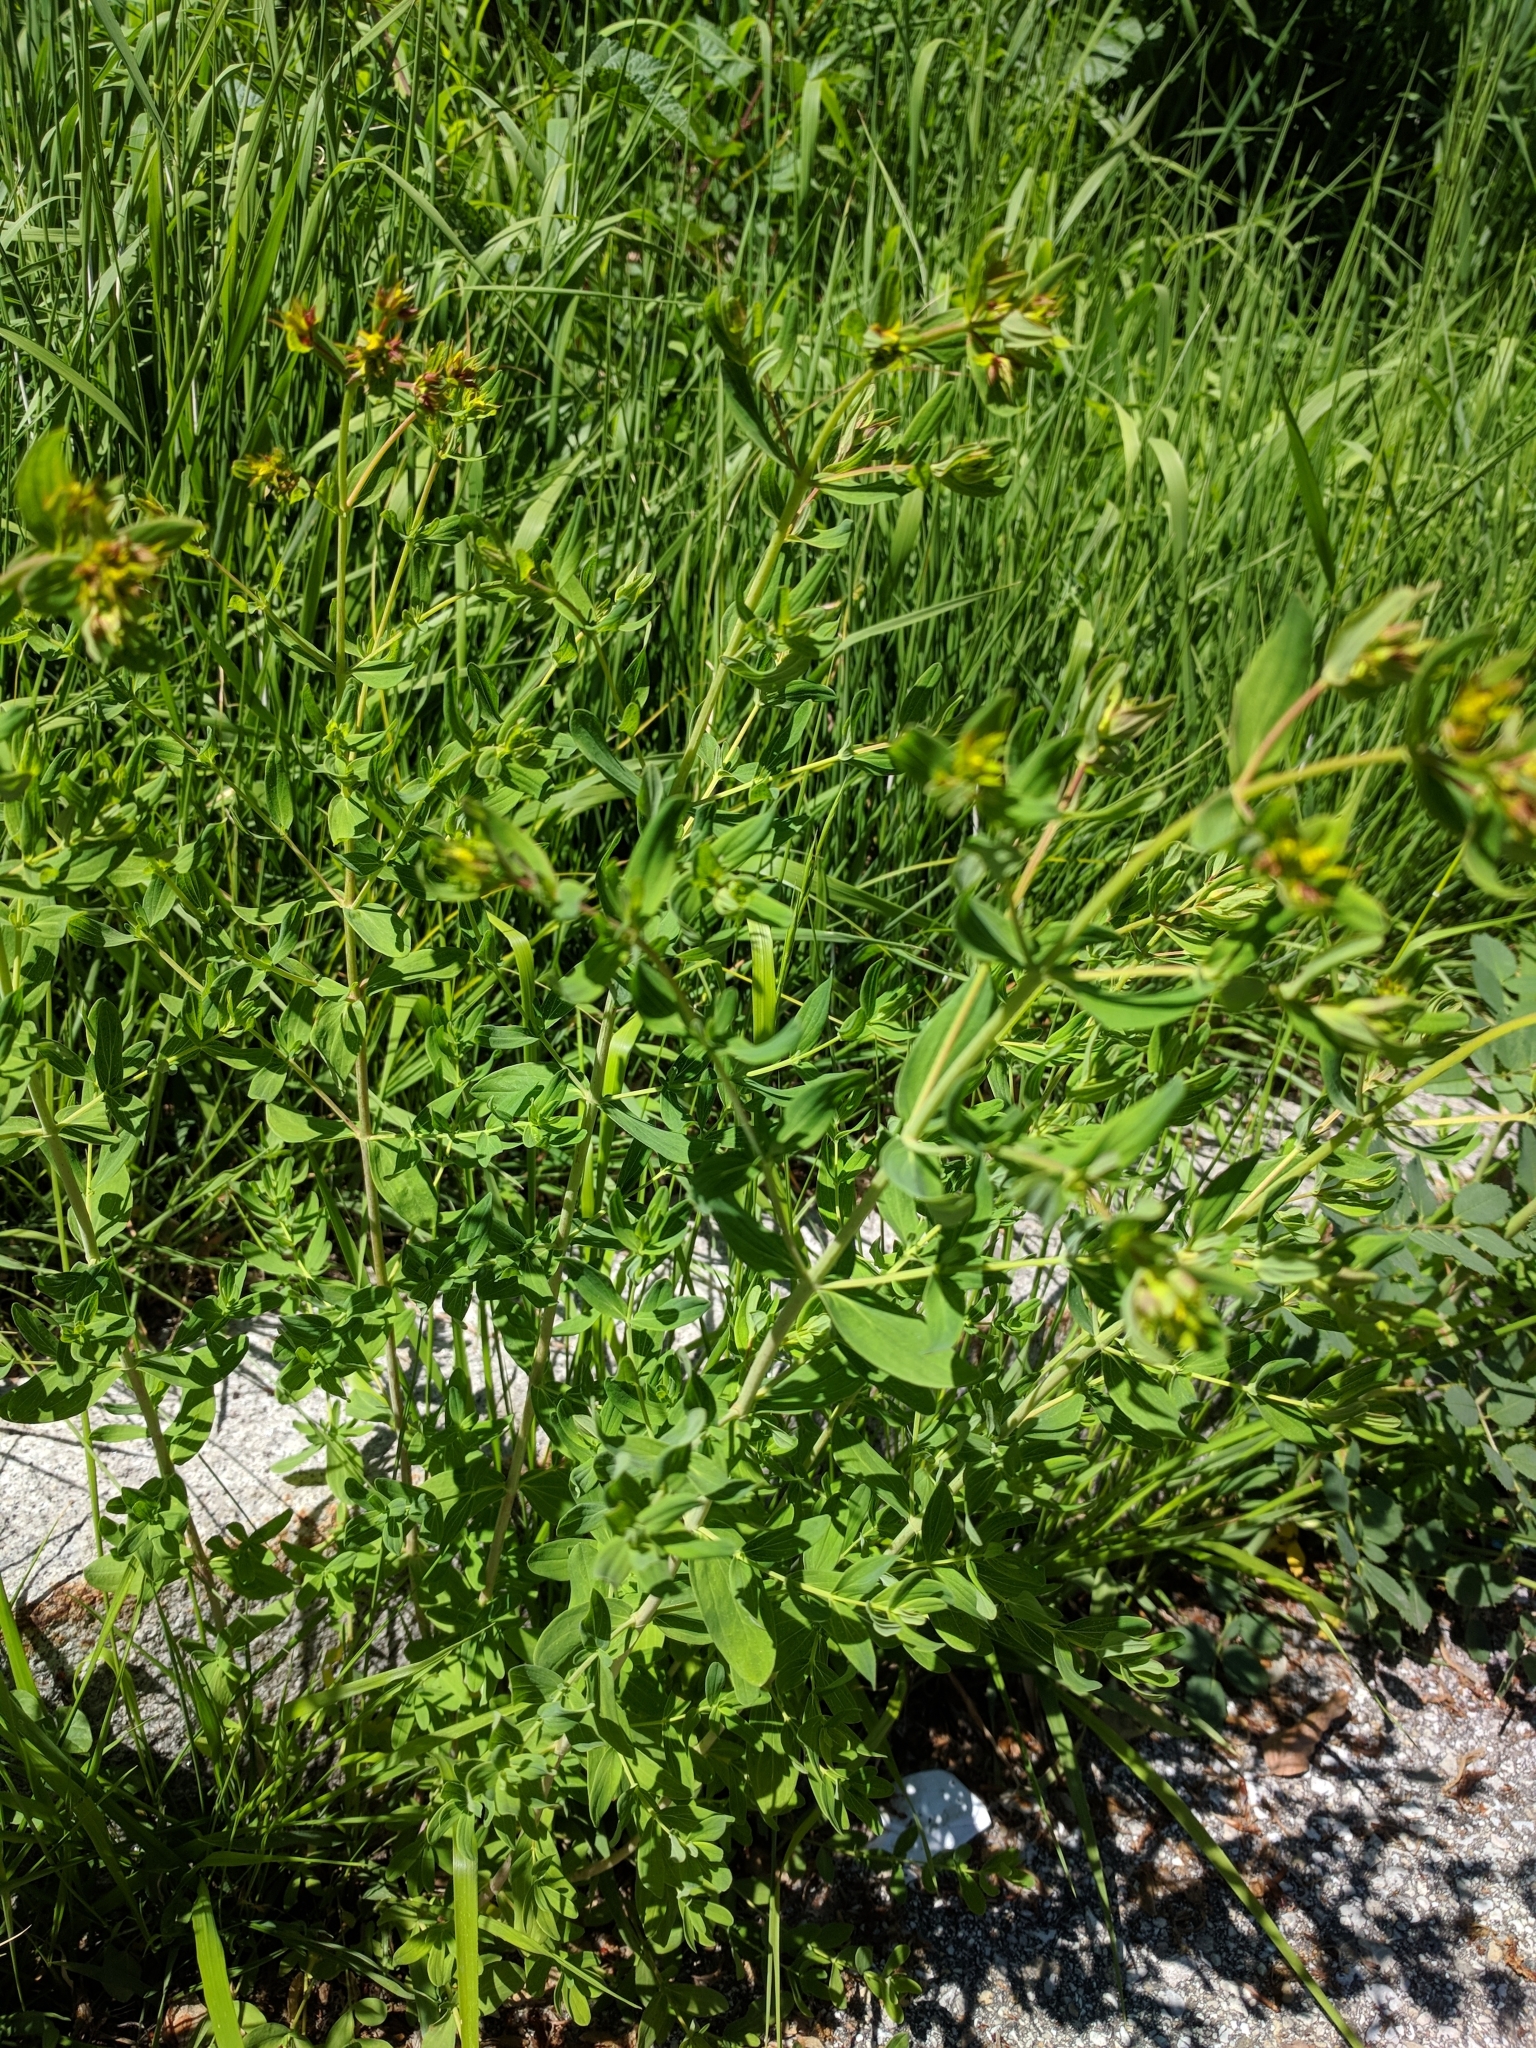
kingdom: Plantae
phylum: Tracheophyta
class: Magnoliopsida
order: Malpighiales
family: Hypericaceae
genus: Hypericum
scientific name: Hypericum perforatum
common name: Common st. johnswort
